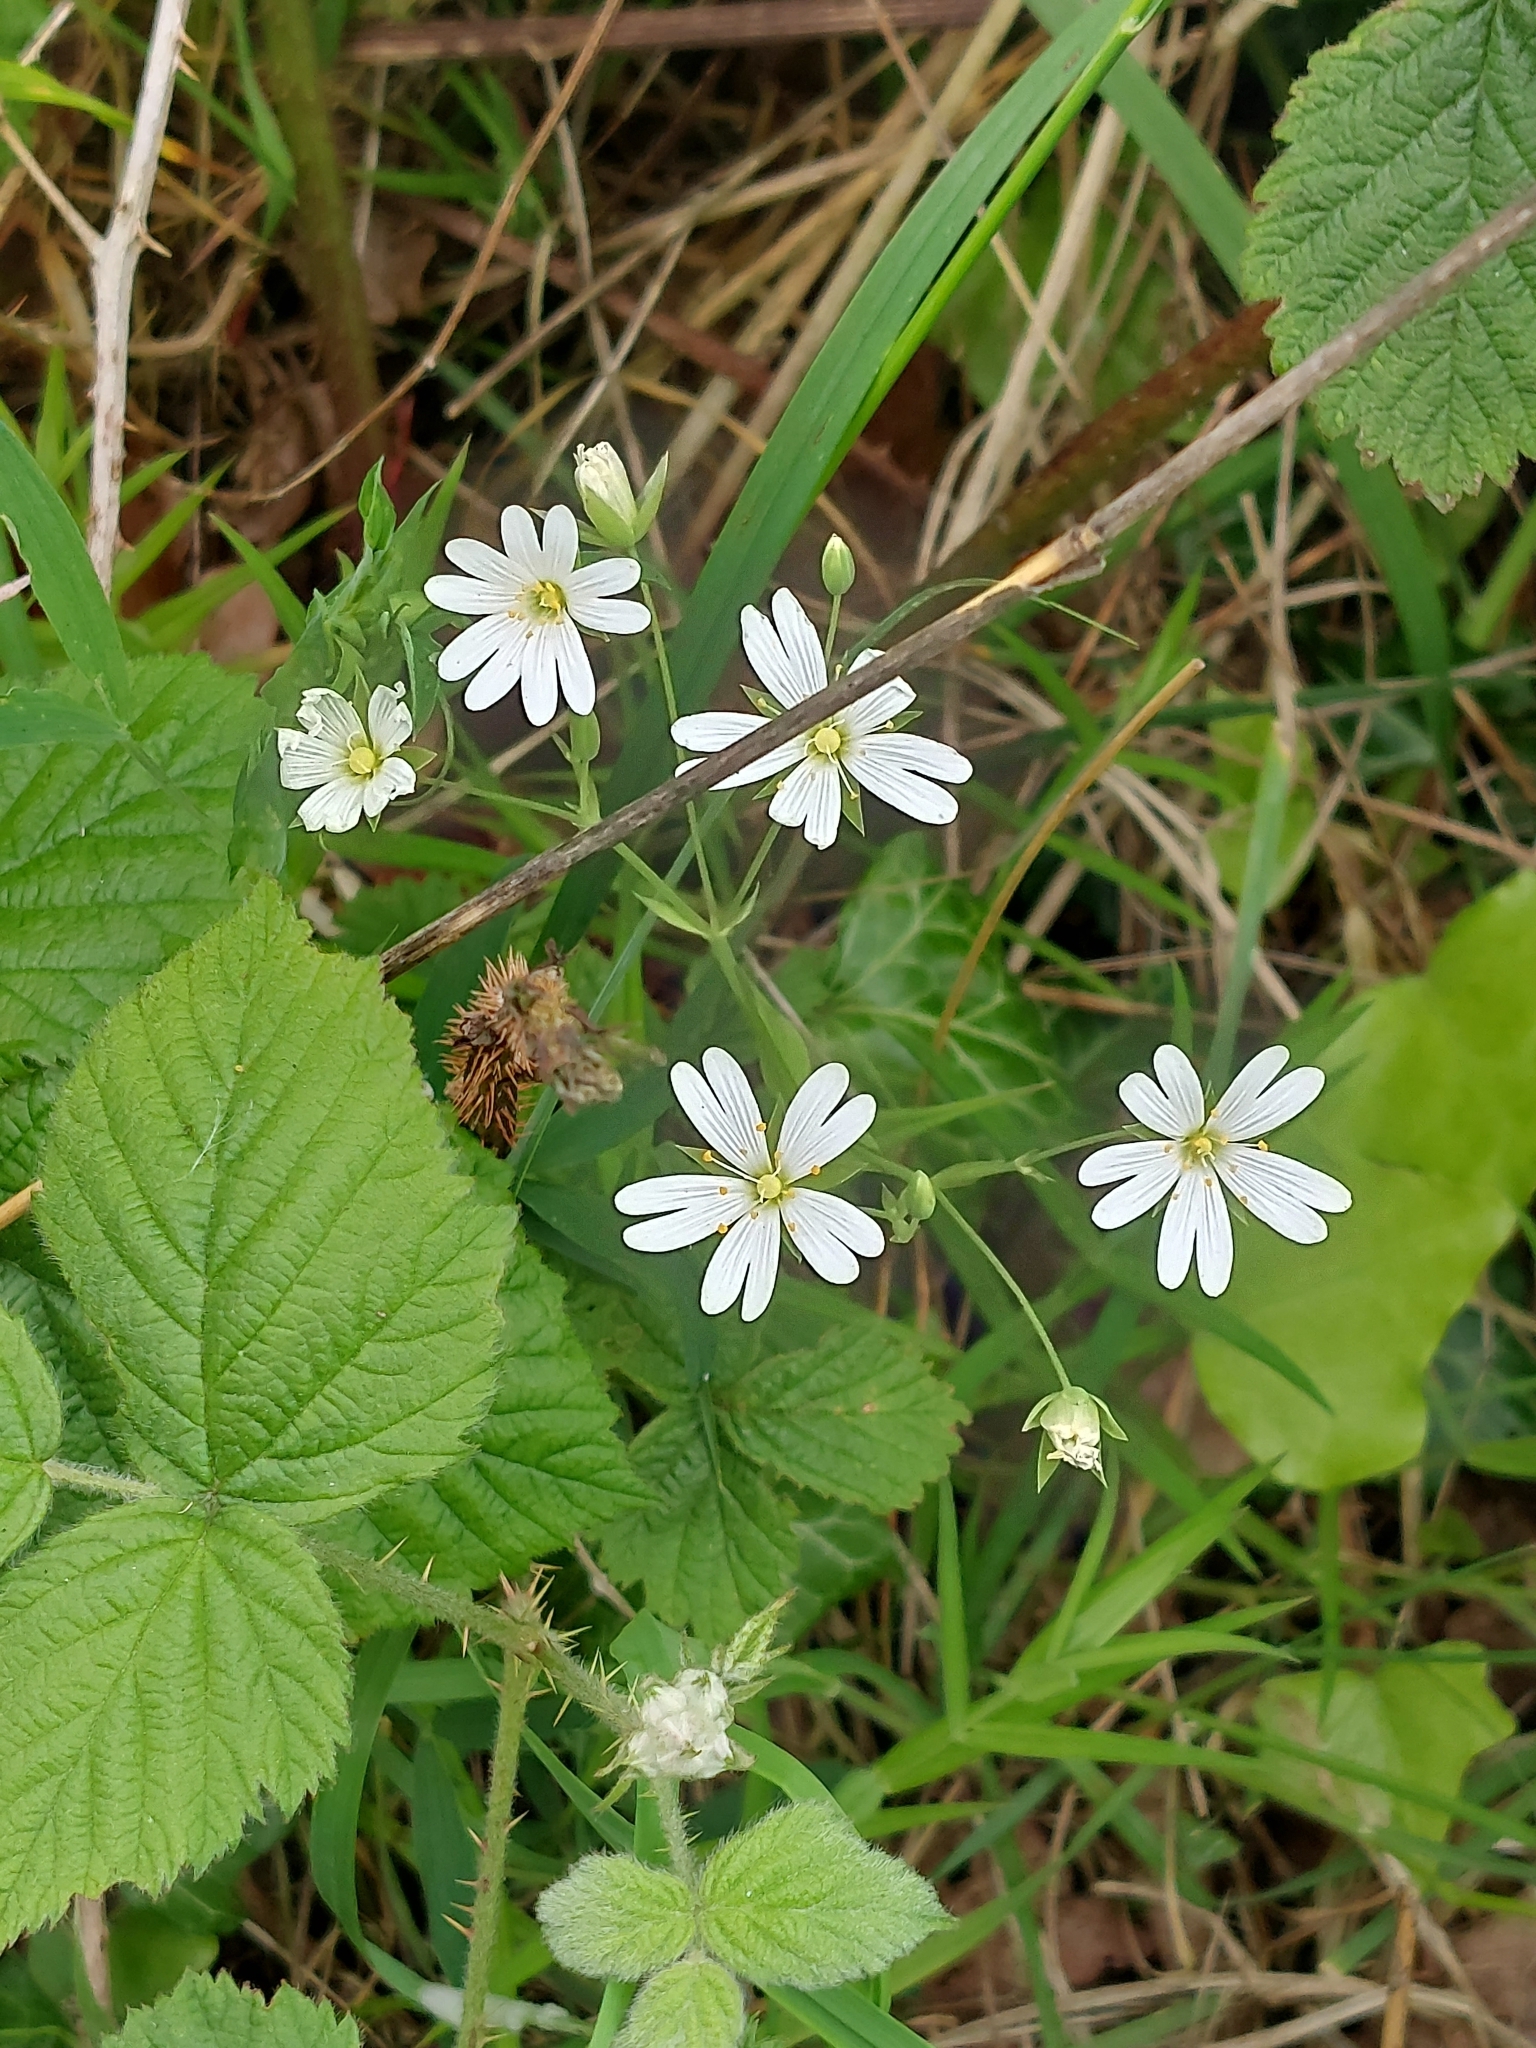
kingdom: Plantae
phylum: Tracheophyta
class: Magnoliopsida
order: Caryophyllales
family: Caryophyllaceae
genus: Rabelera
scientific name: Rabelera holostea
